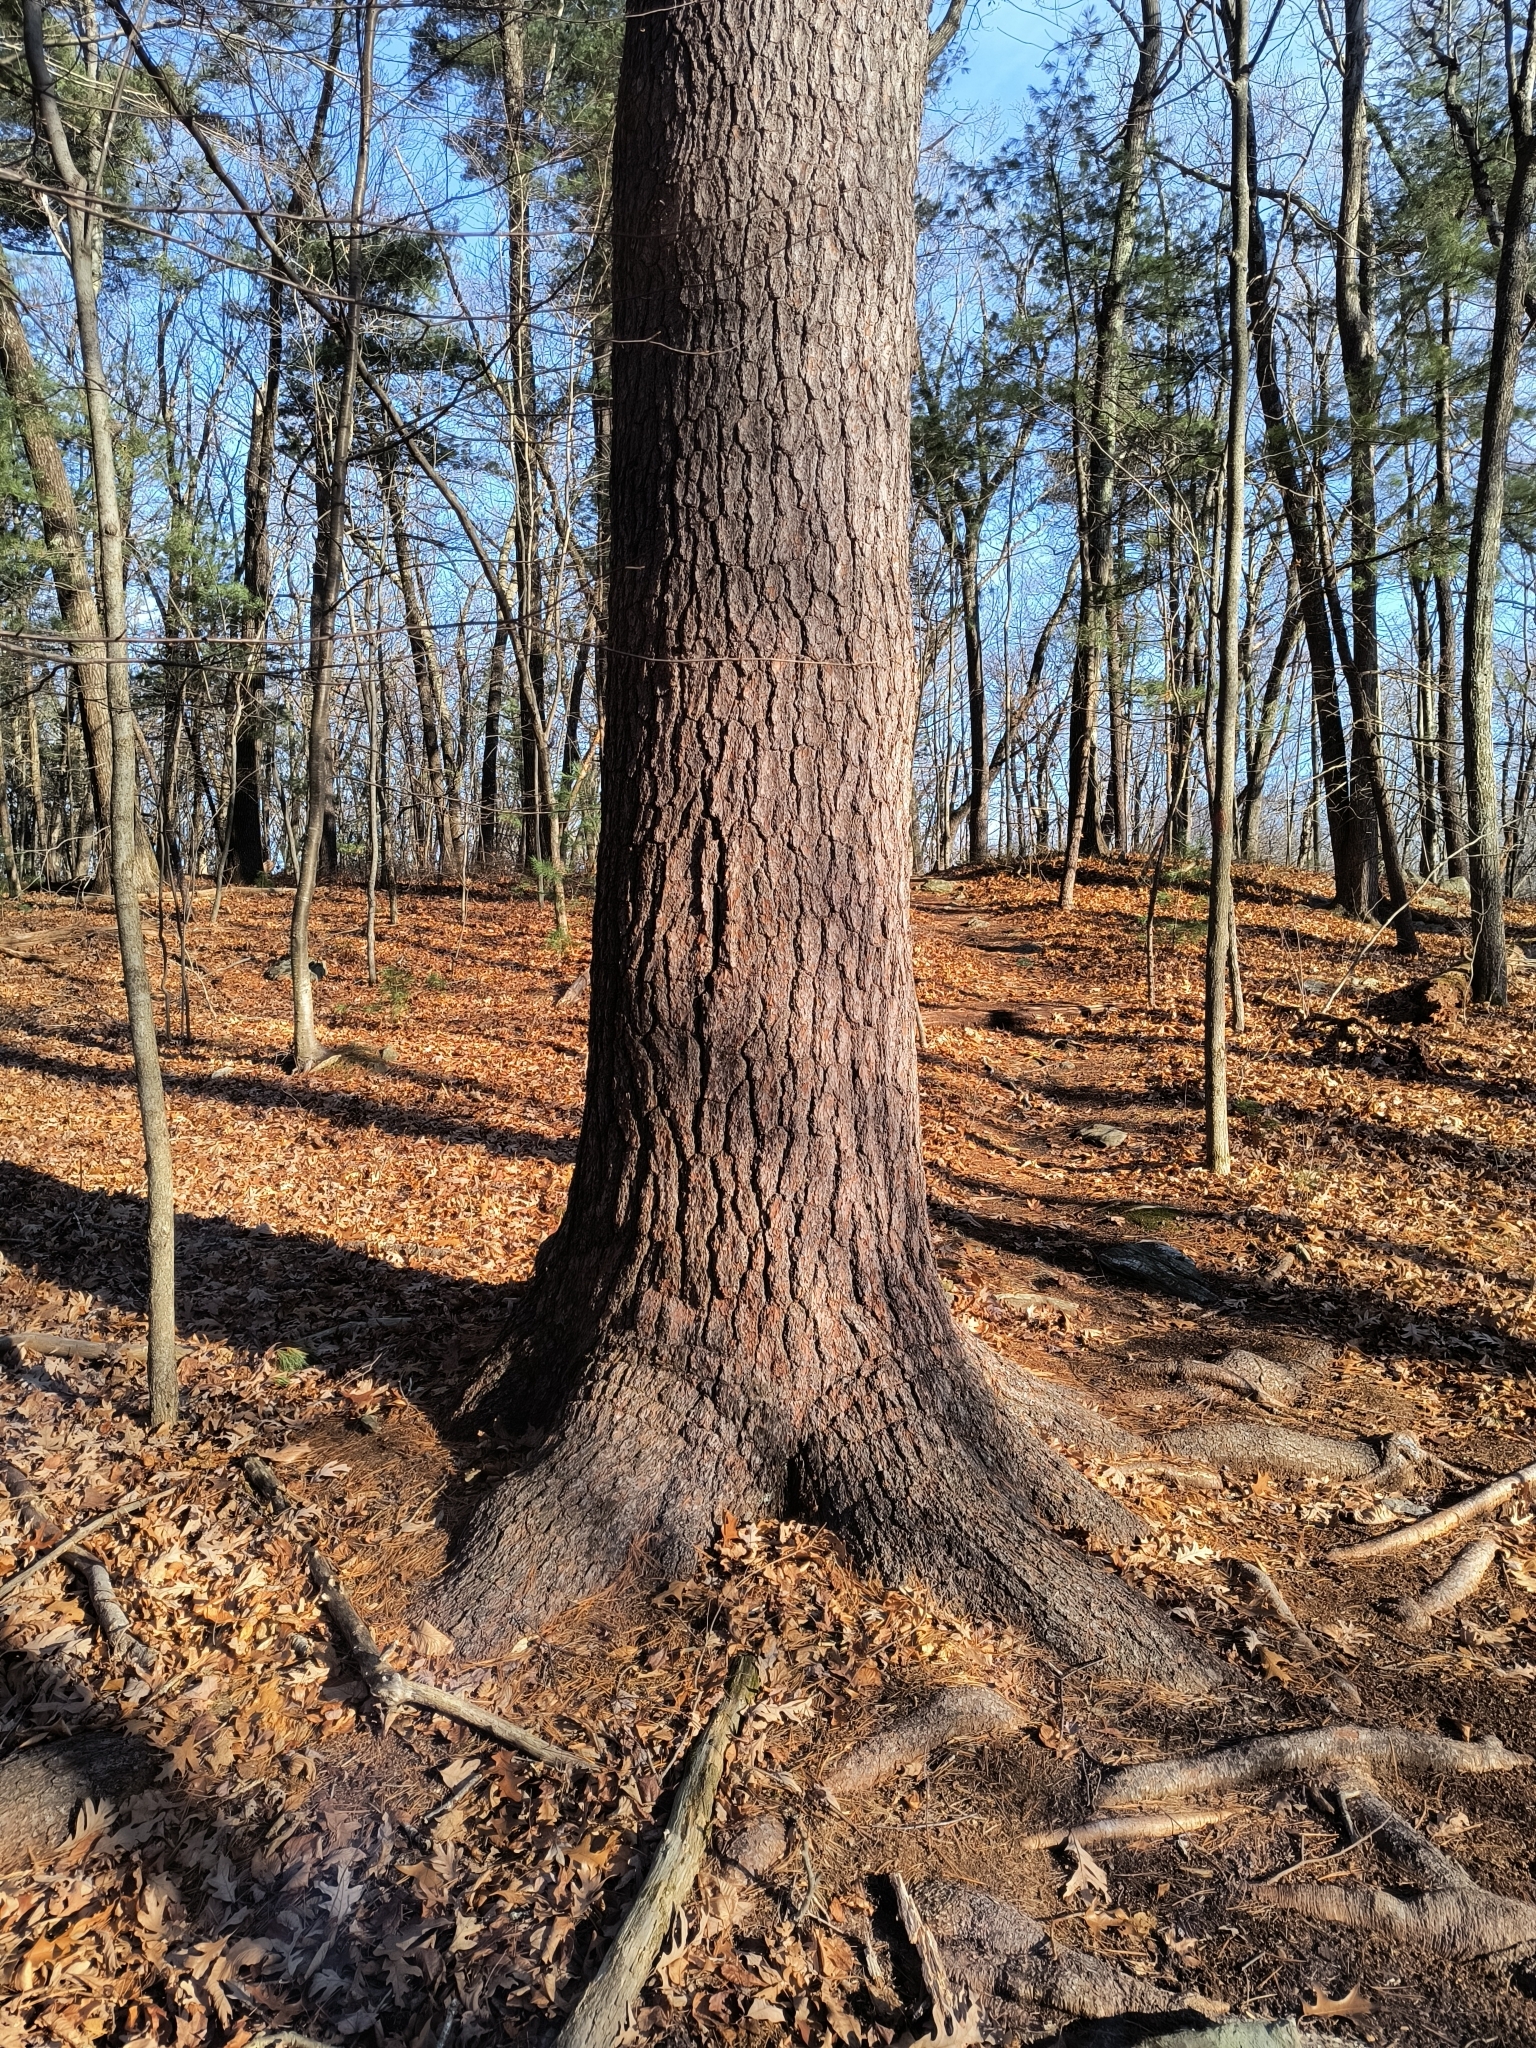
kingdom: Plantae
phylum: Tracheophyta
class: Pinopsida
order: Pinales
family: Pinaceae
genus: Pinus
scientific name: Pinus strobus
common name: Weymouth pine
